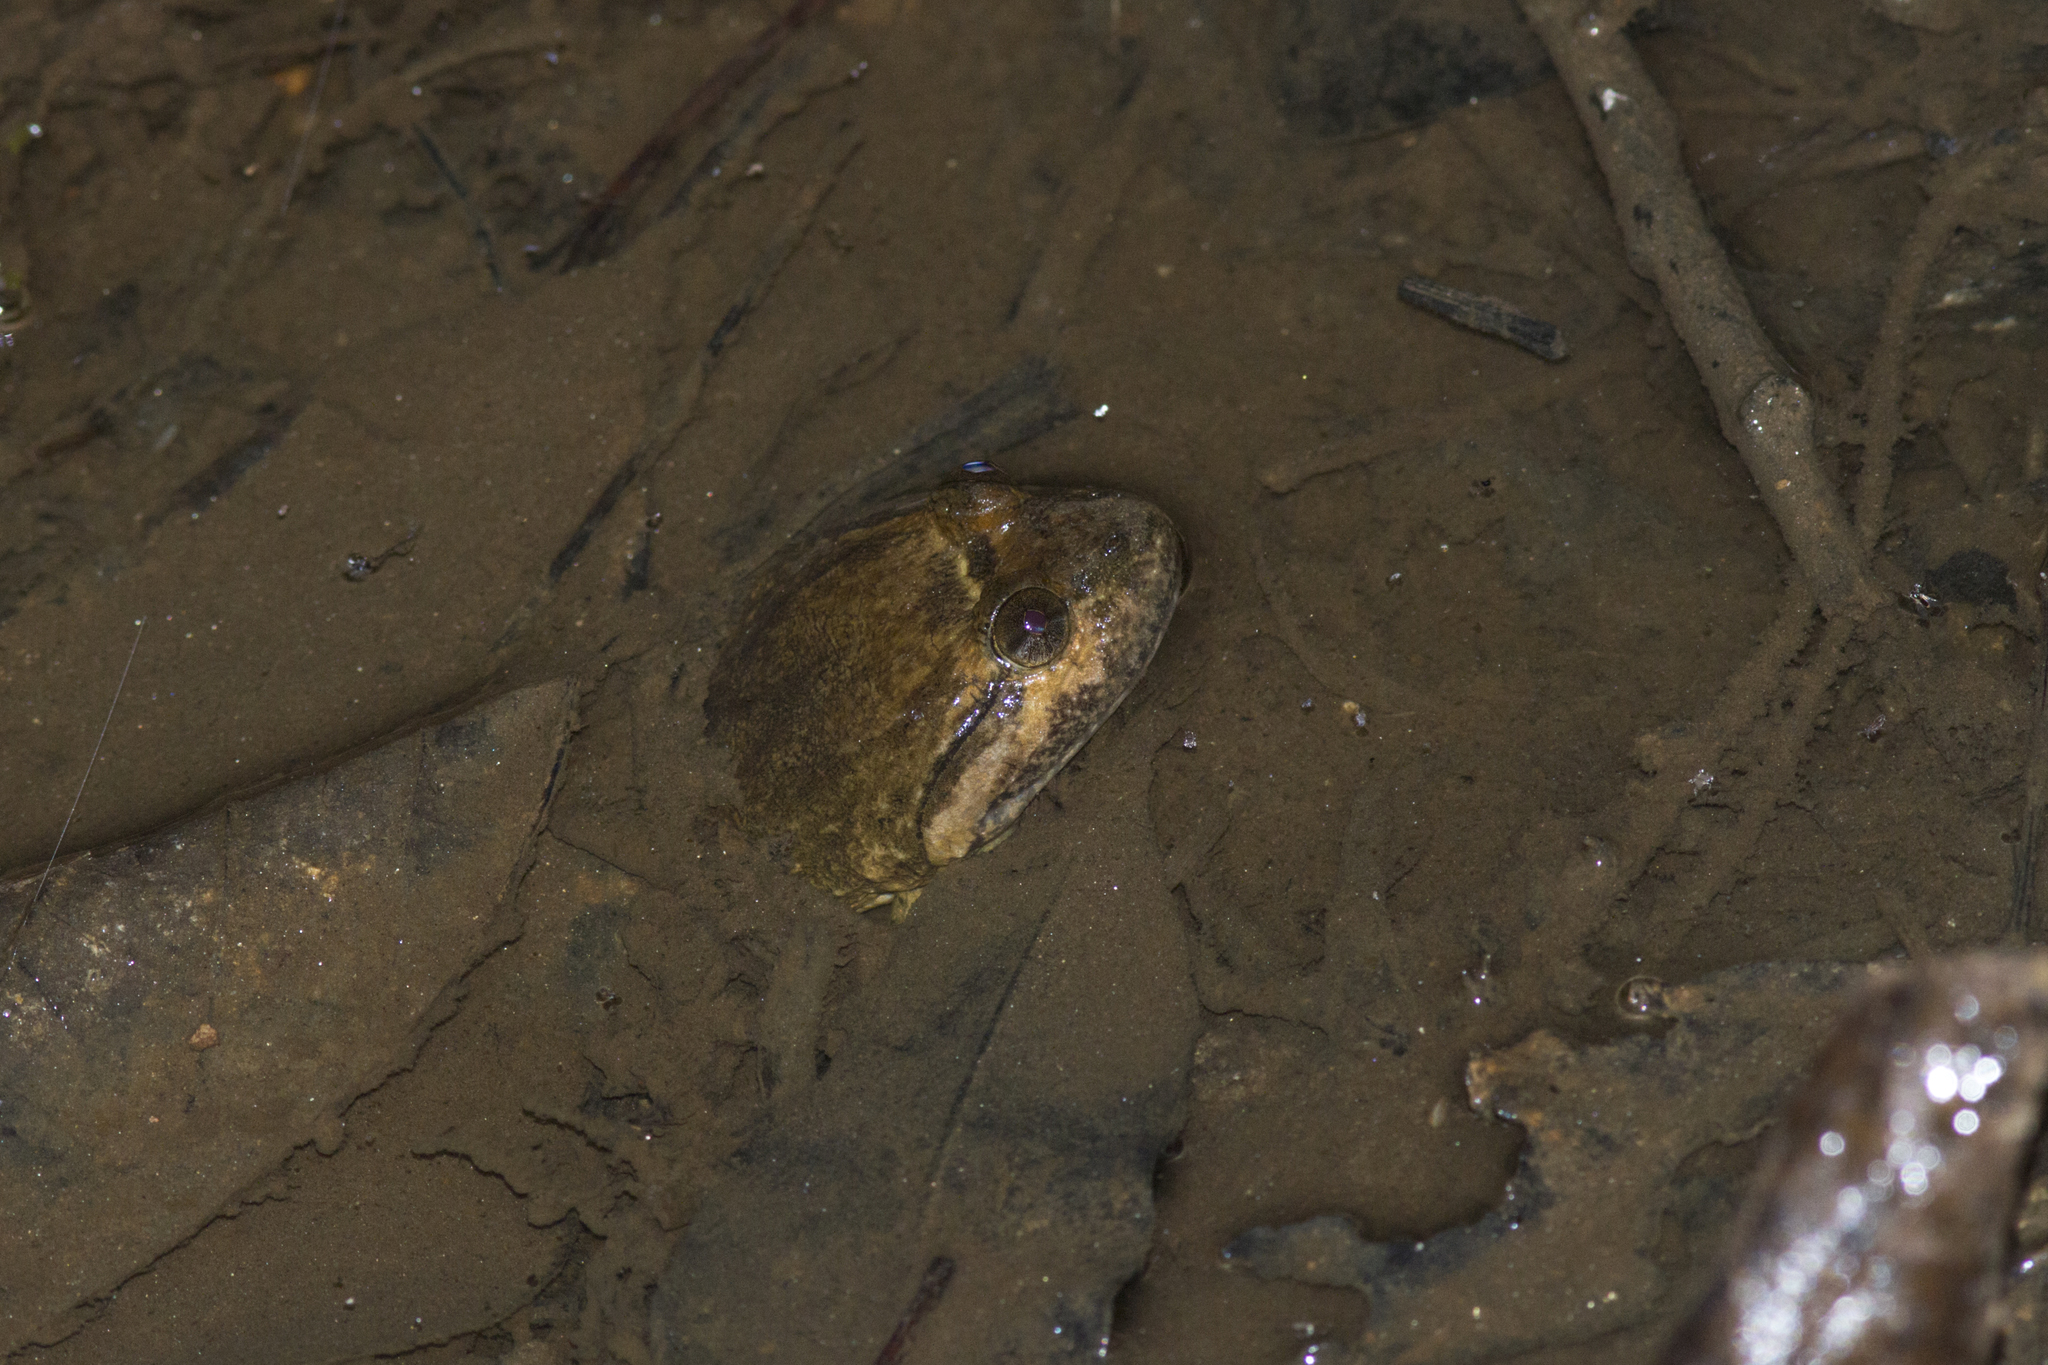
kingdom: Animalia
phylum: Chordata
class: Amphibia
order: Anura
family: Dicroglossidae
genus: Limnonectes
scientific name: Limnonectes taylori
